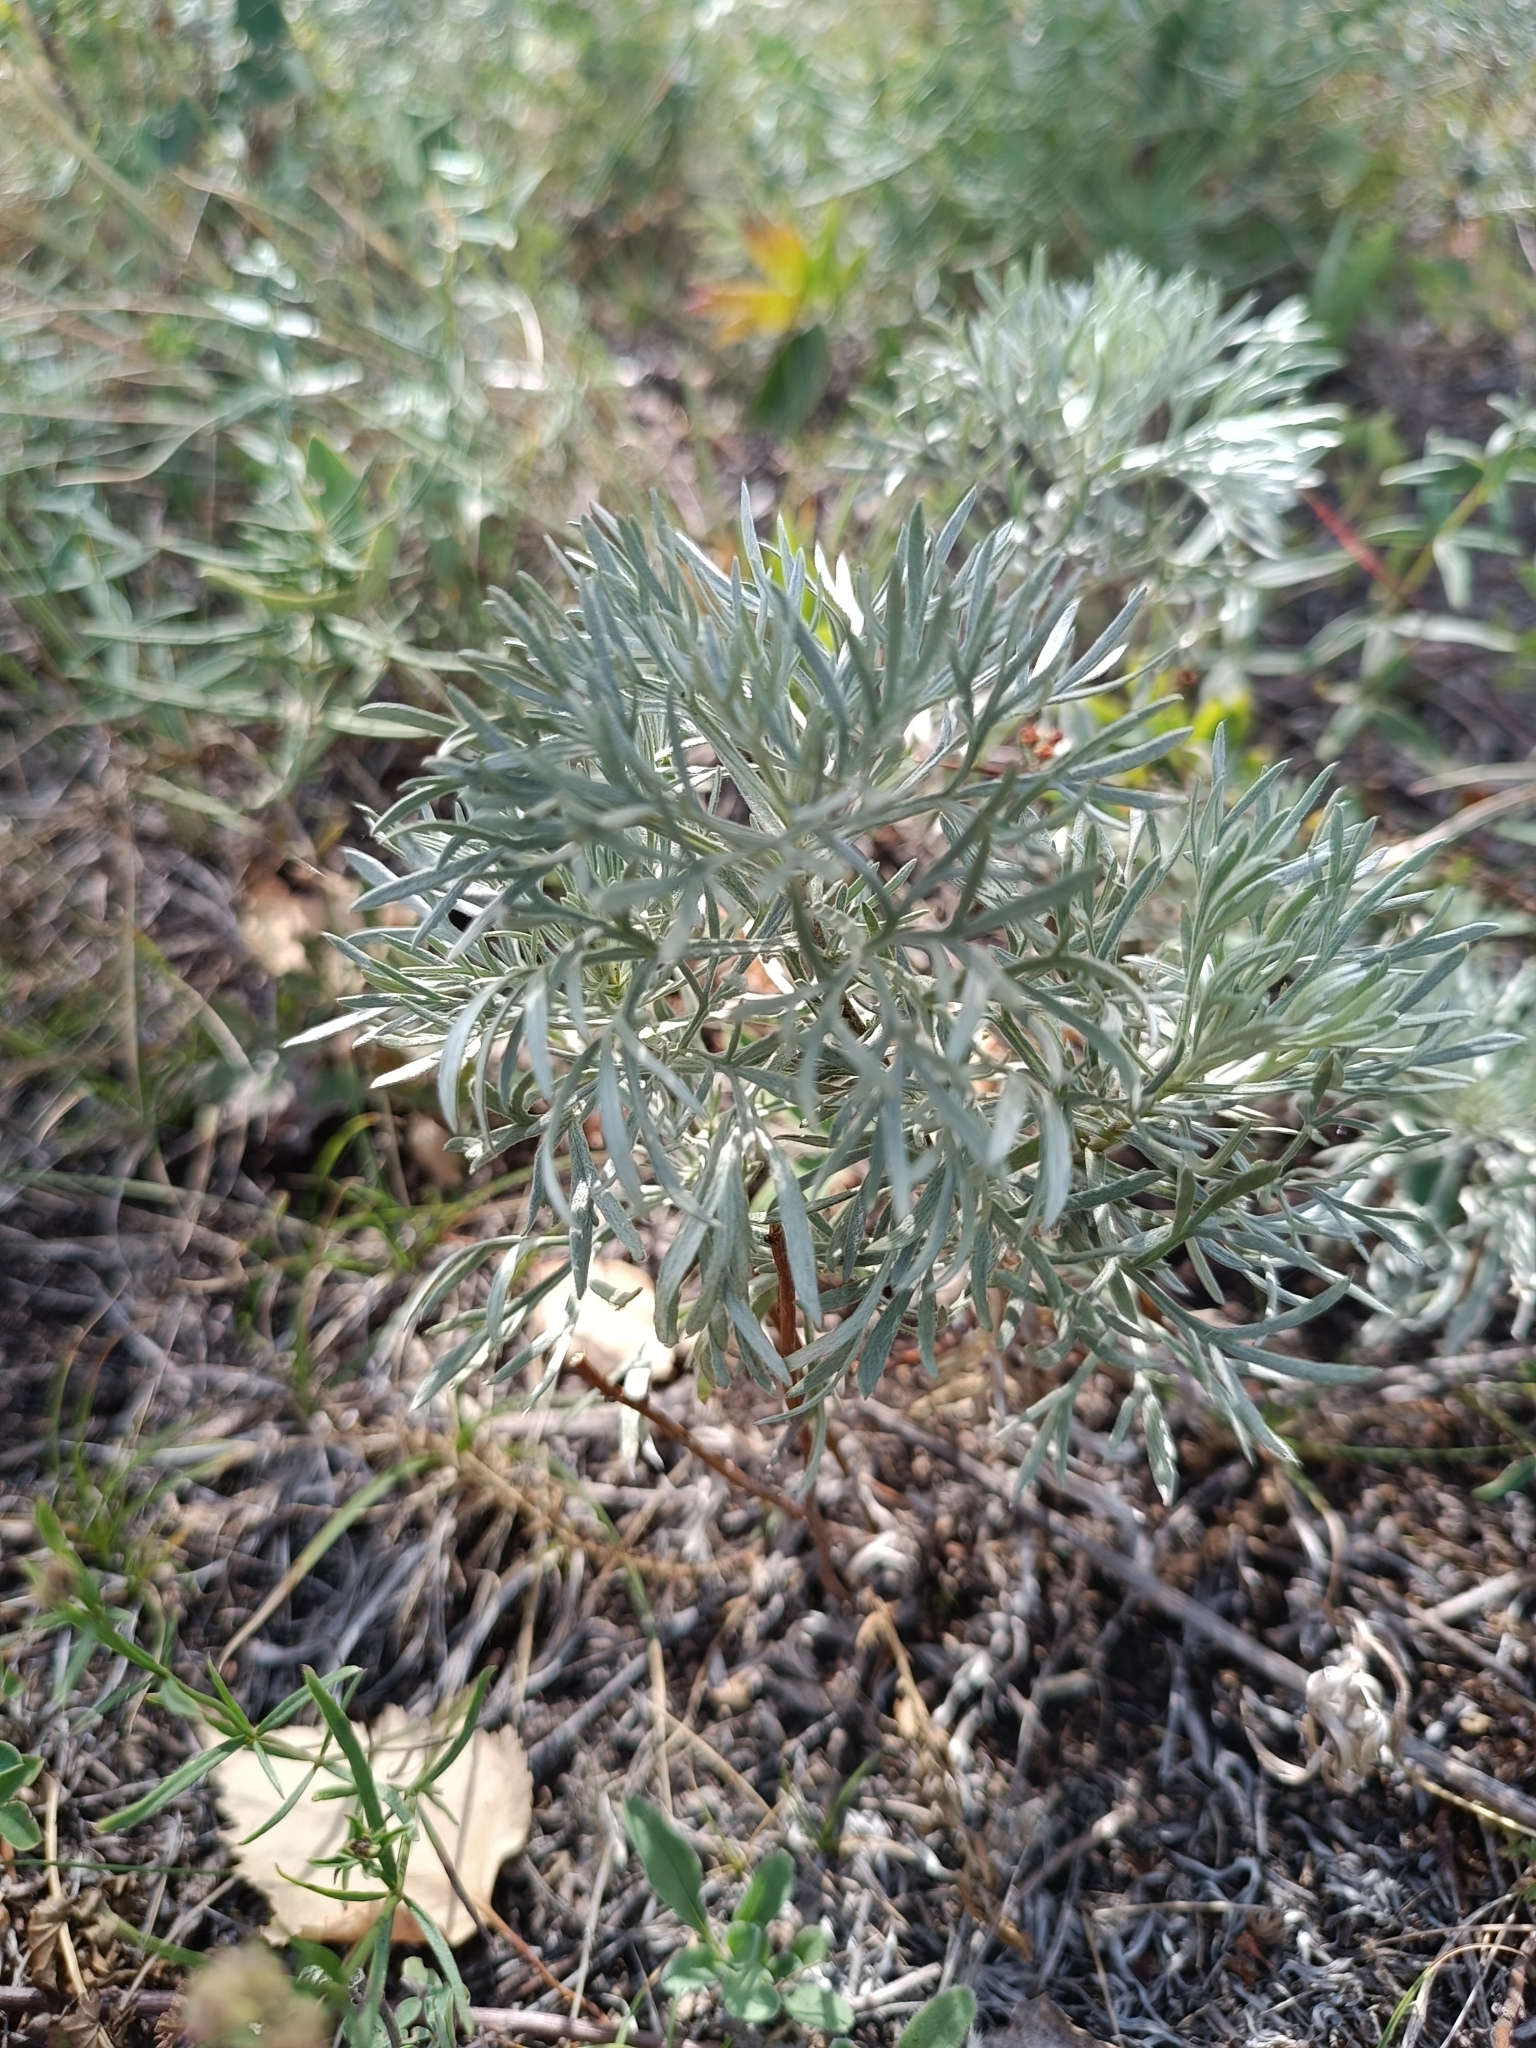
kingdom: Plantae
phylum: Tracheophyta
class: Magnoliopsida
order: Asterales
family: Asteraceae
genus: Artemisia
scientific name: Artemisia sericea
